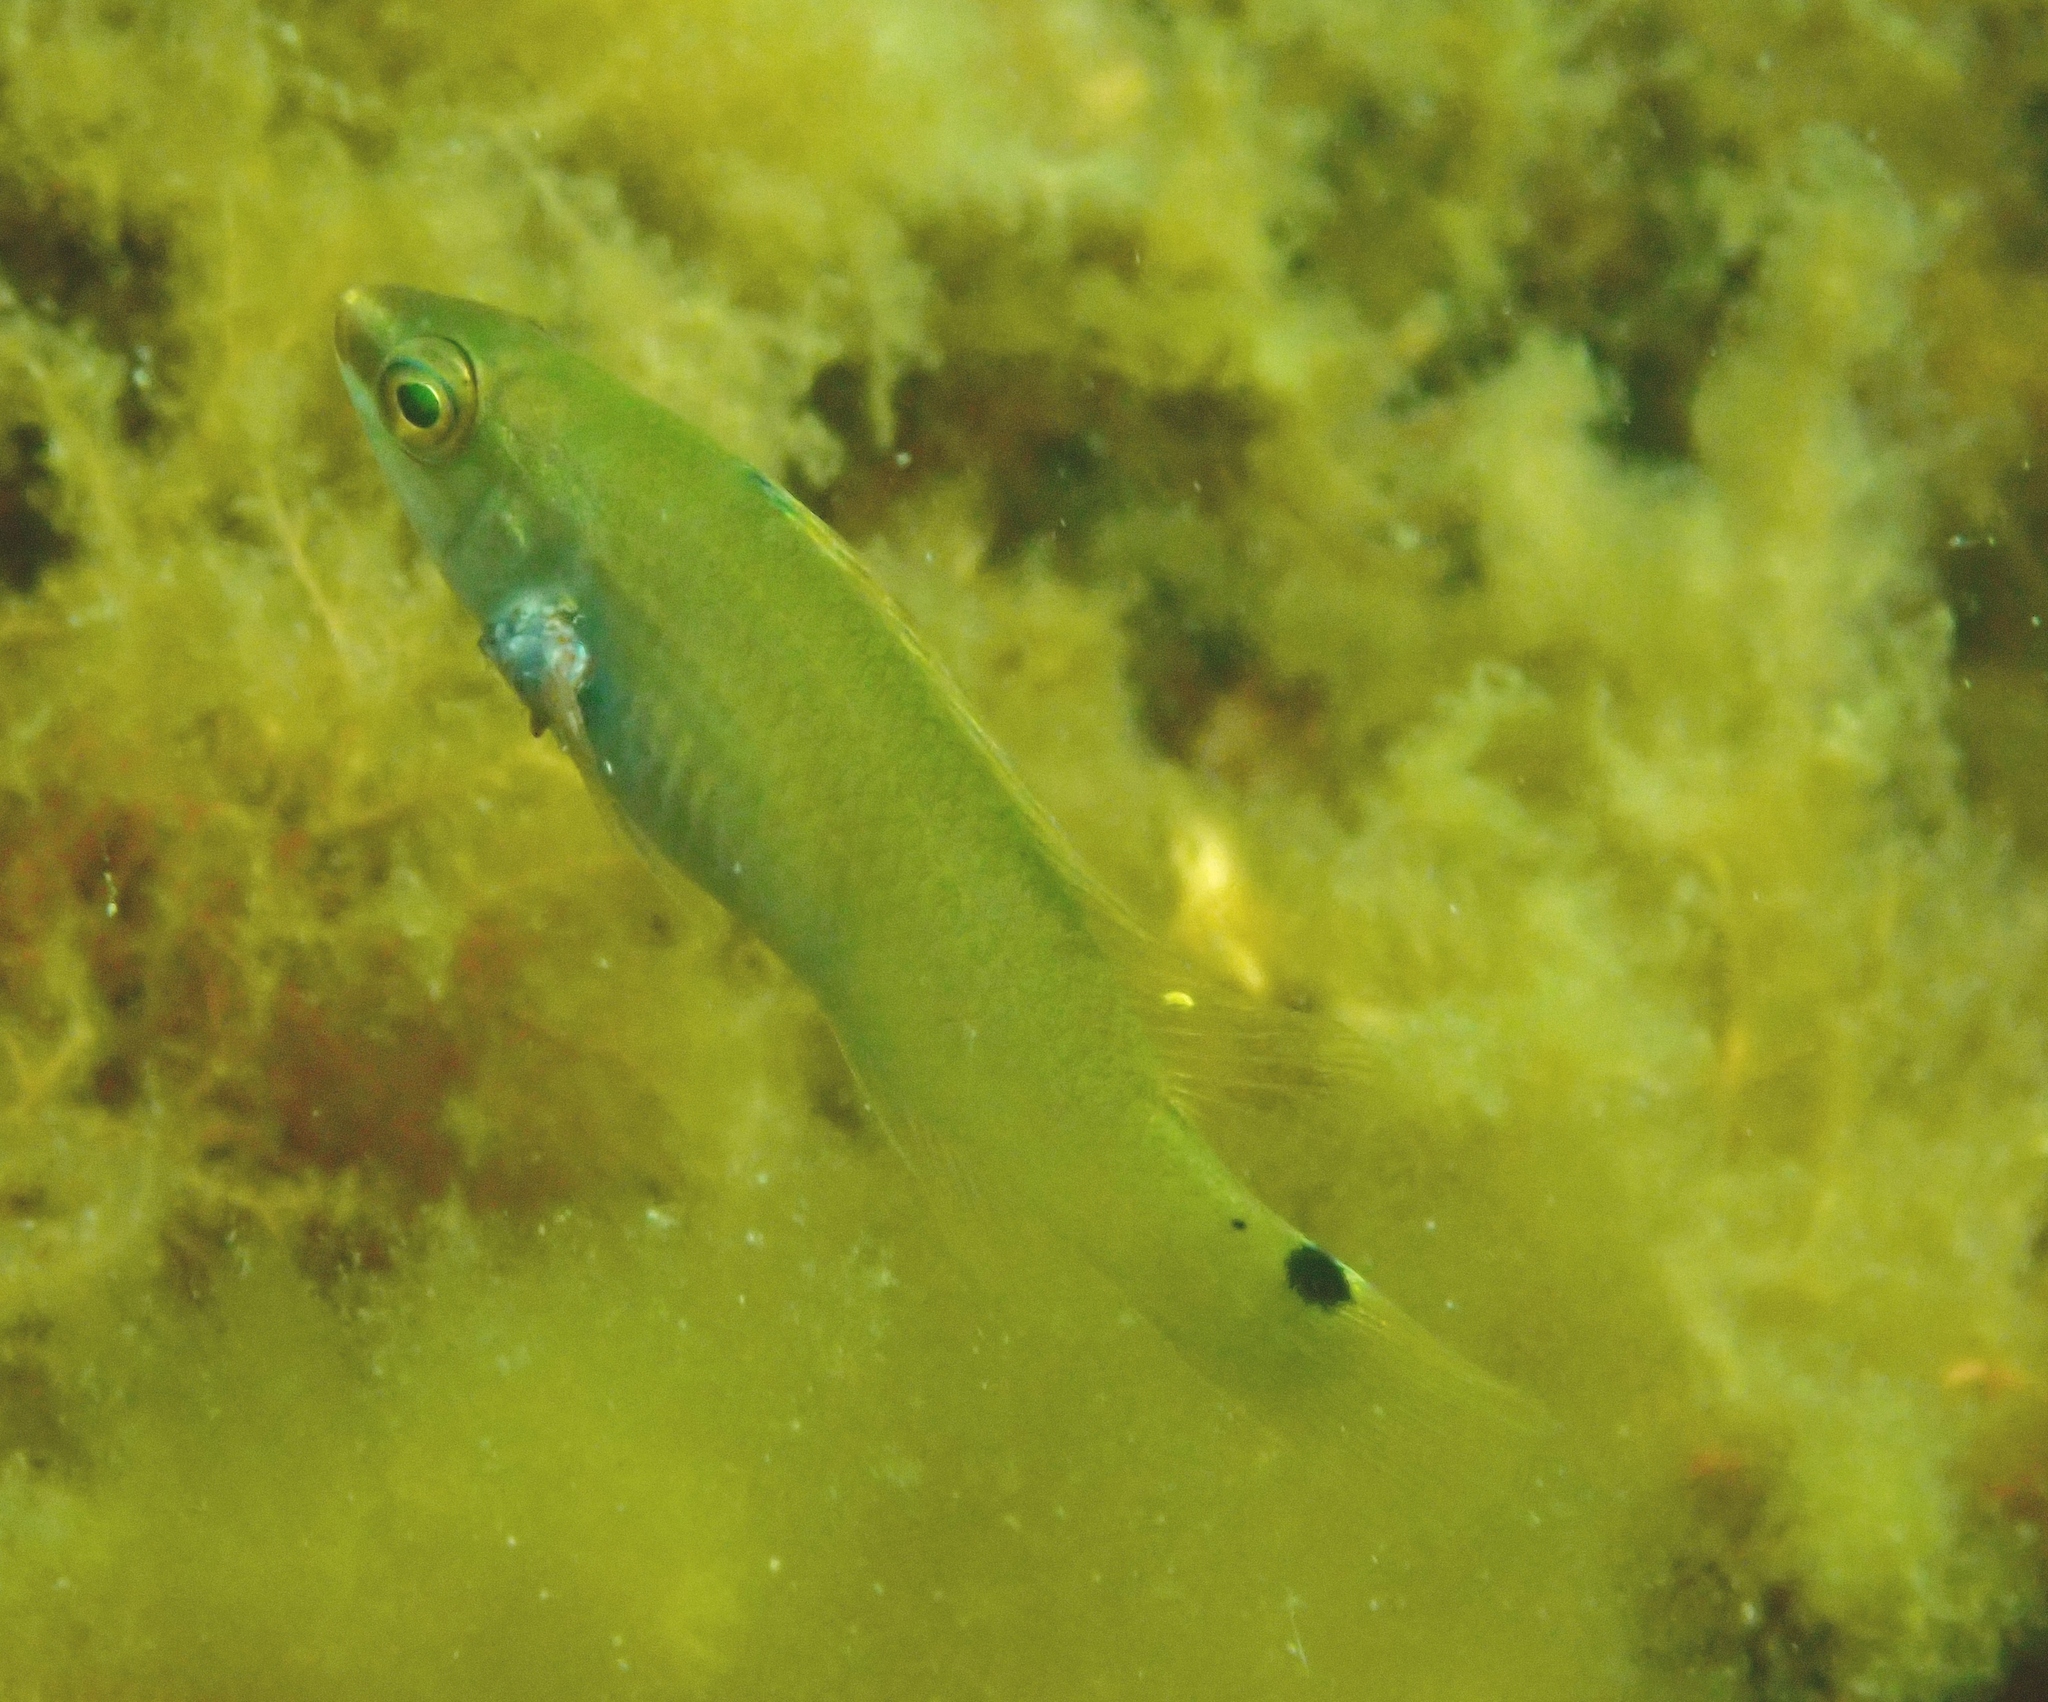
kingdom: Animalia
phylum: Chordata
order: Perciformes
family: Labridae
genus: Ctenolabrus
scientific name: Ctenolabrus rupestris
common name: Goldsinny
